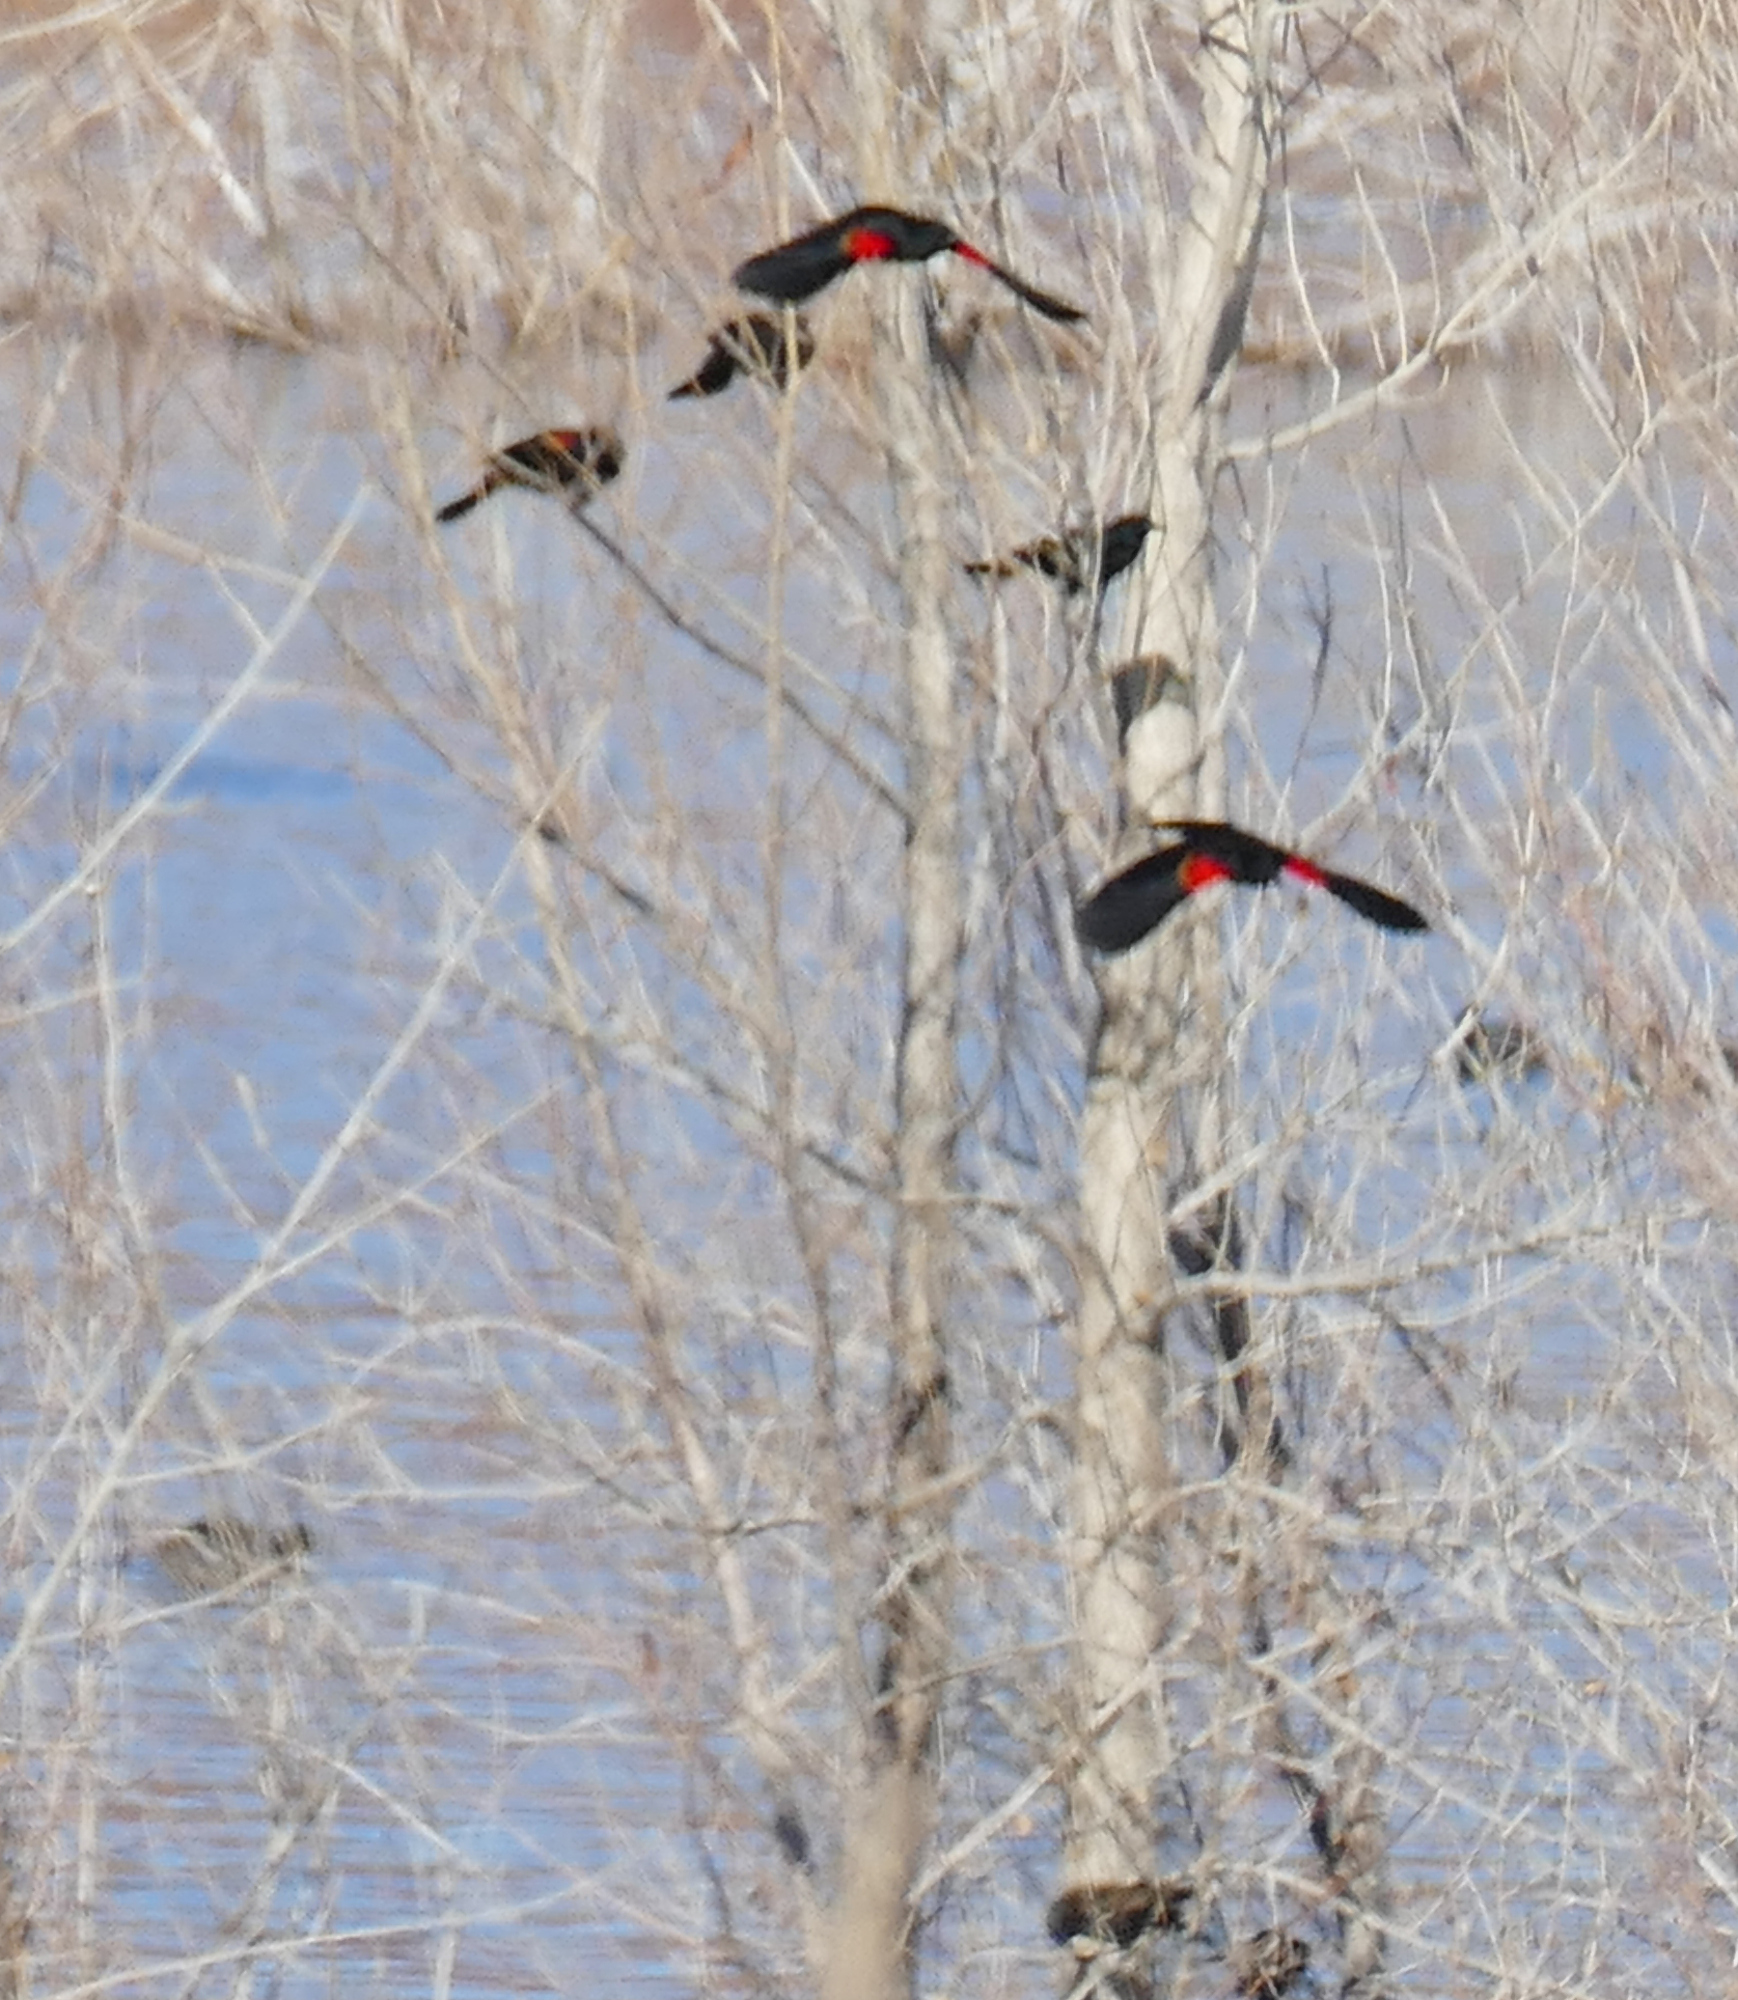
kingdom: Animalia
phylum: Chordata
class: Aves
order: Passeriformes
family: Icteridae
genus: Agelaius
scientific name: Agelaius phoeniceus
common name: Red-winged blackbird
